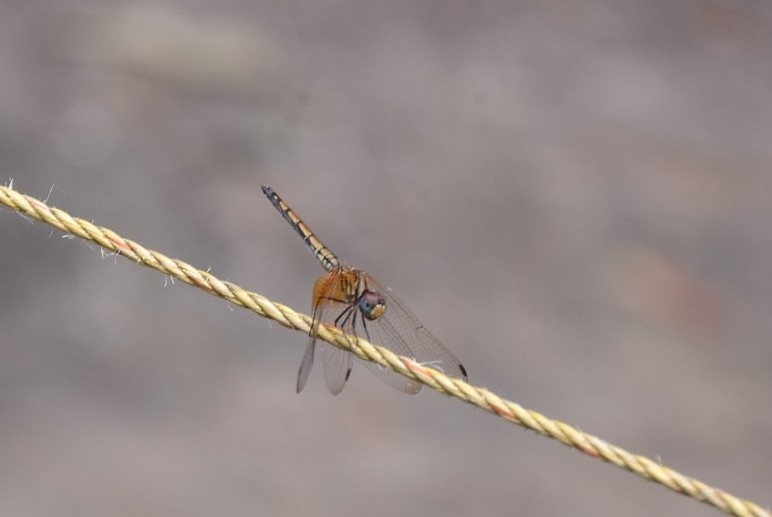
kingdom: Animalia
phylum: Arthropoda
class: Insecta
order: Odonata
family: Libellulidae
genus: Trithemis
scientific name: Trithemis aurora
